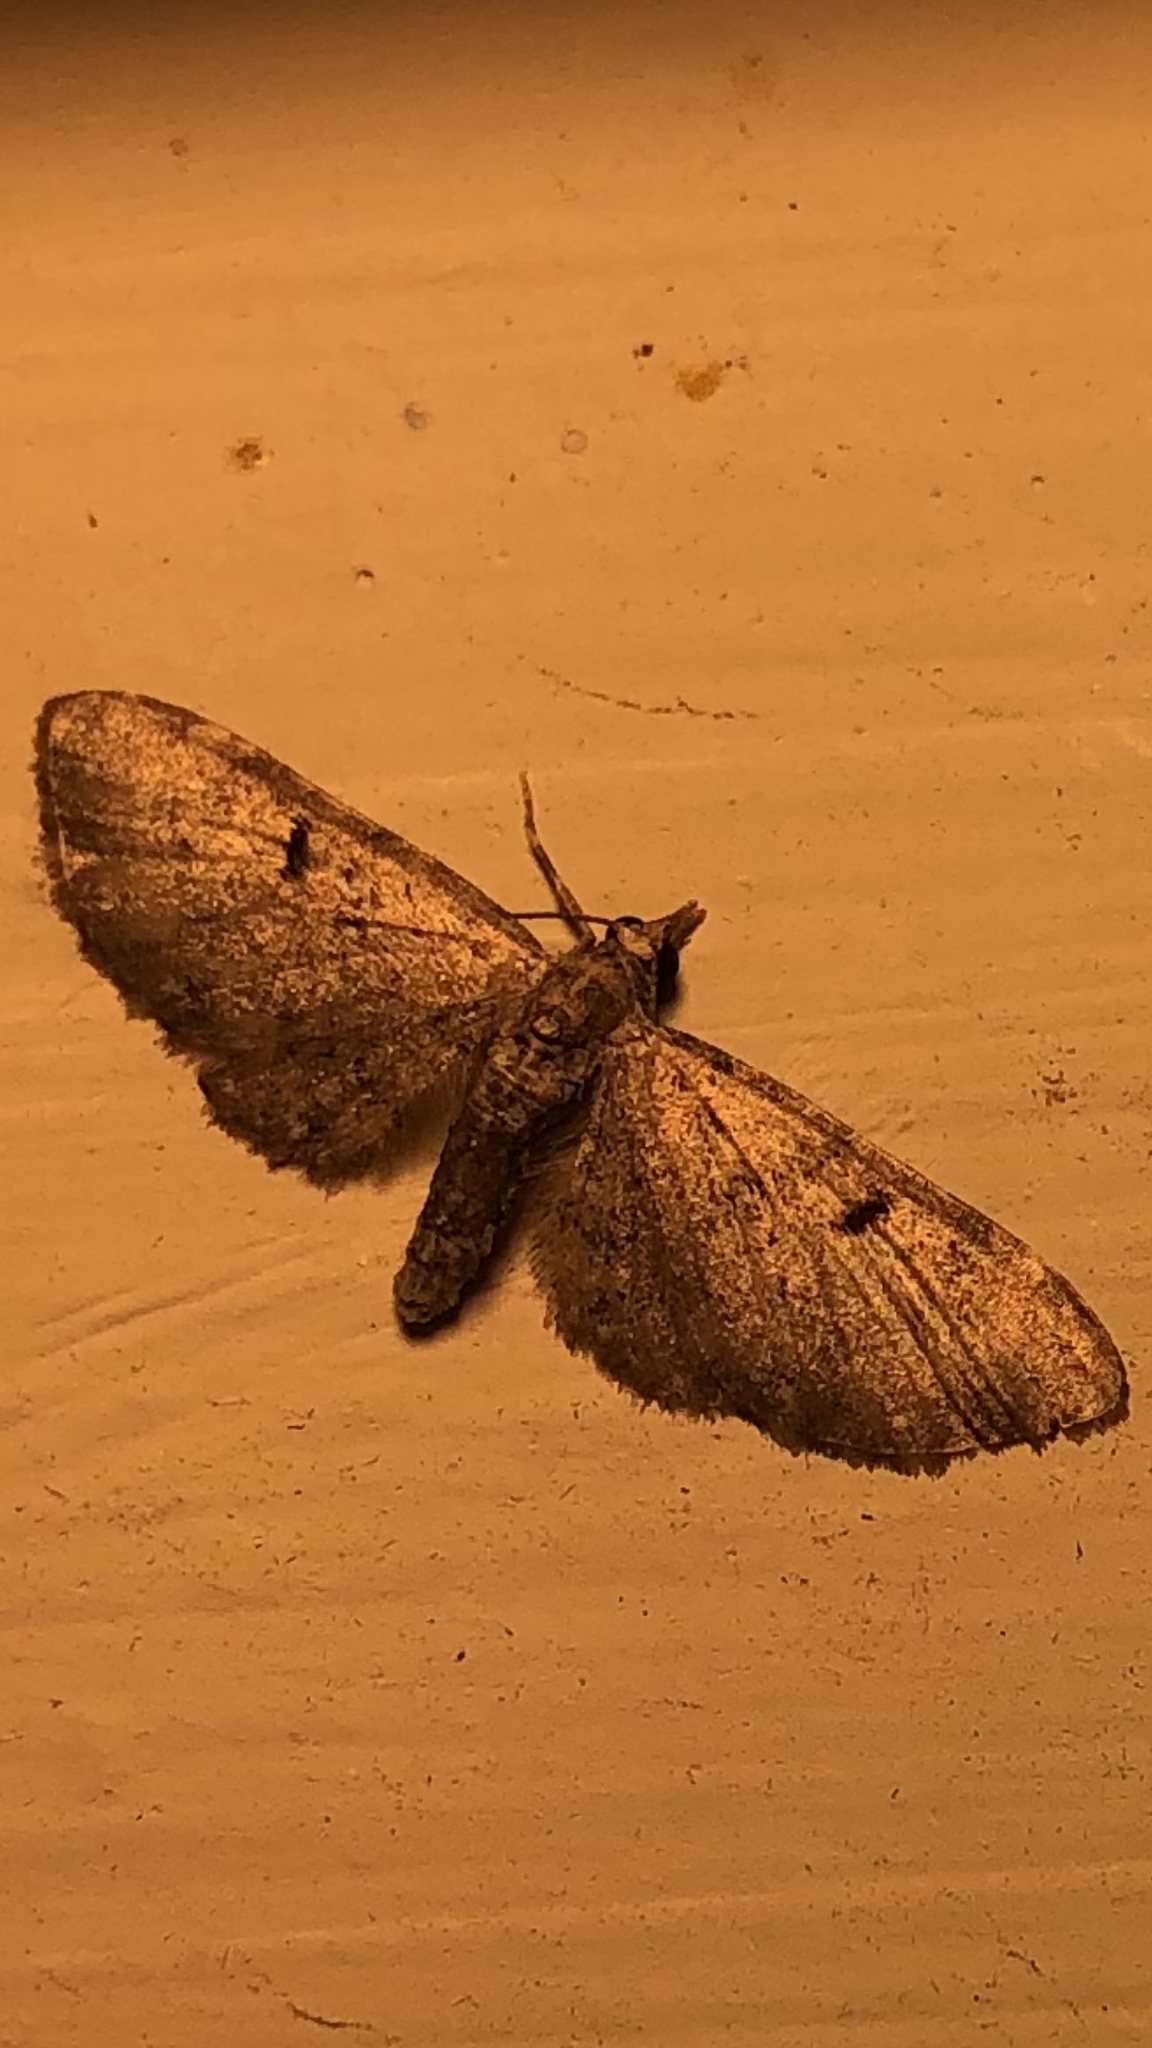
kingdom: Animalia
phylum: Arthropoda
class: Insecta
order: Lepidoptera
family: Geometridae
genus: Eupithecia
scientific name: Eupithecia miserulata
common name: Common eupithecia
